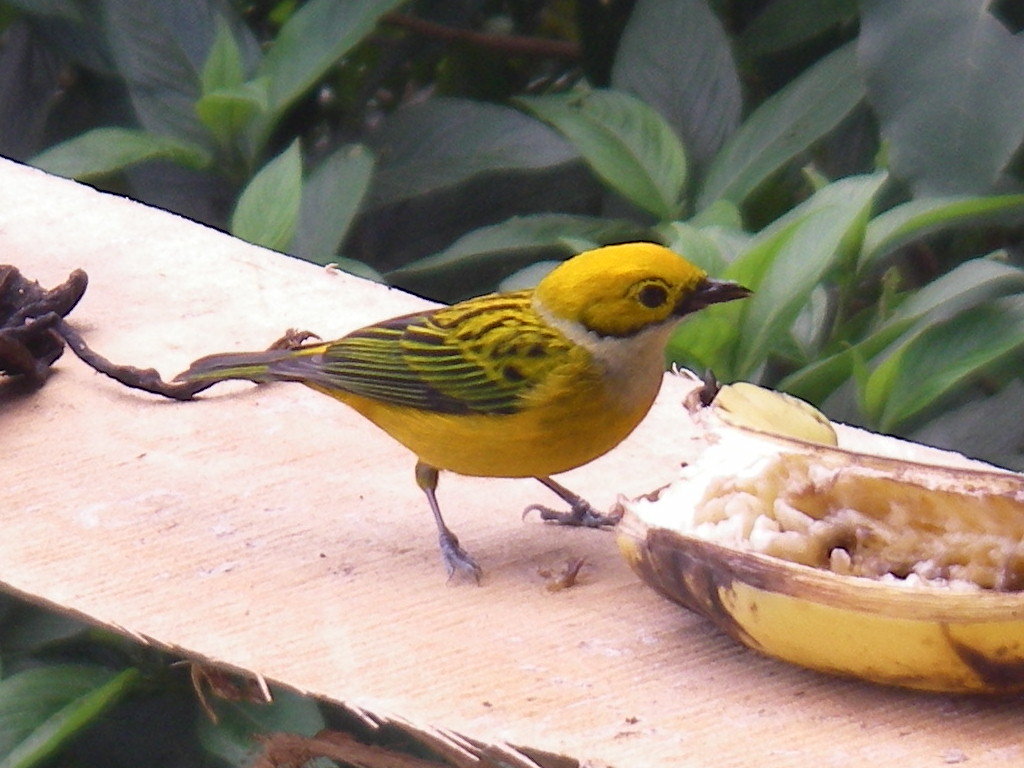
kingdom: Animalia
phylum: Chordata
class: Aves
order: Passeriformes
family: Thraupidae
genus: Tangara
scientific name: Tangara icterocephala
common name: Silver-throated tanager
